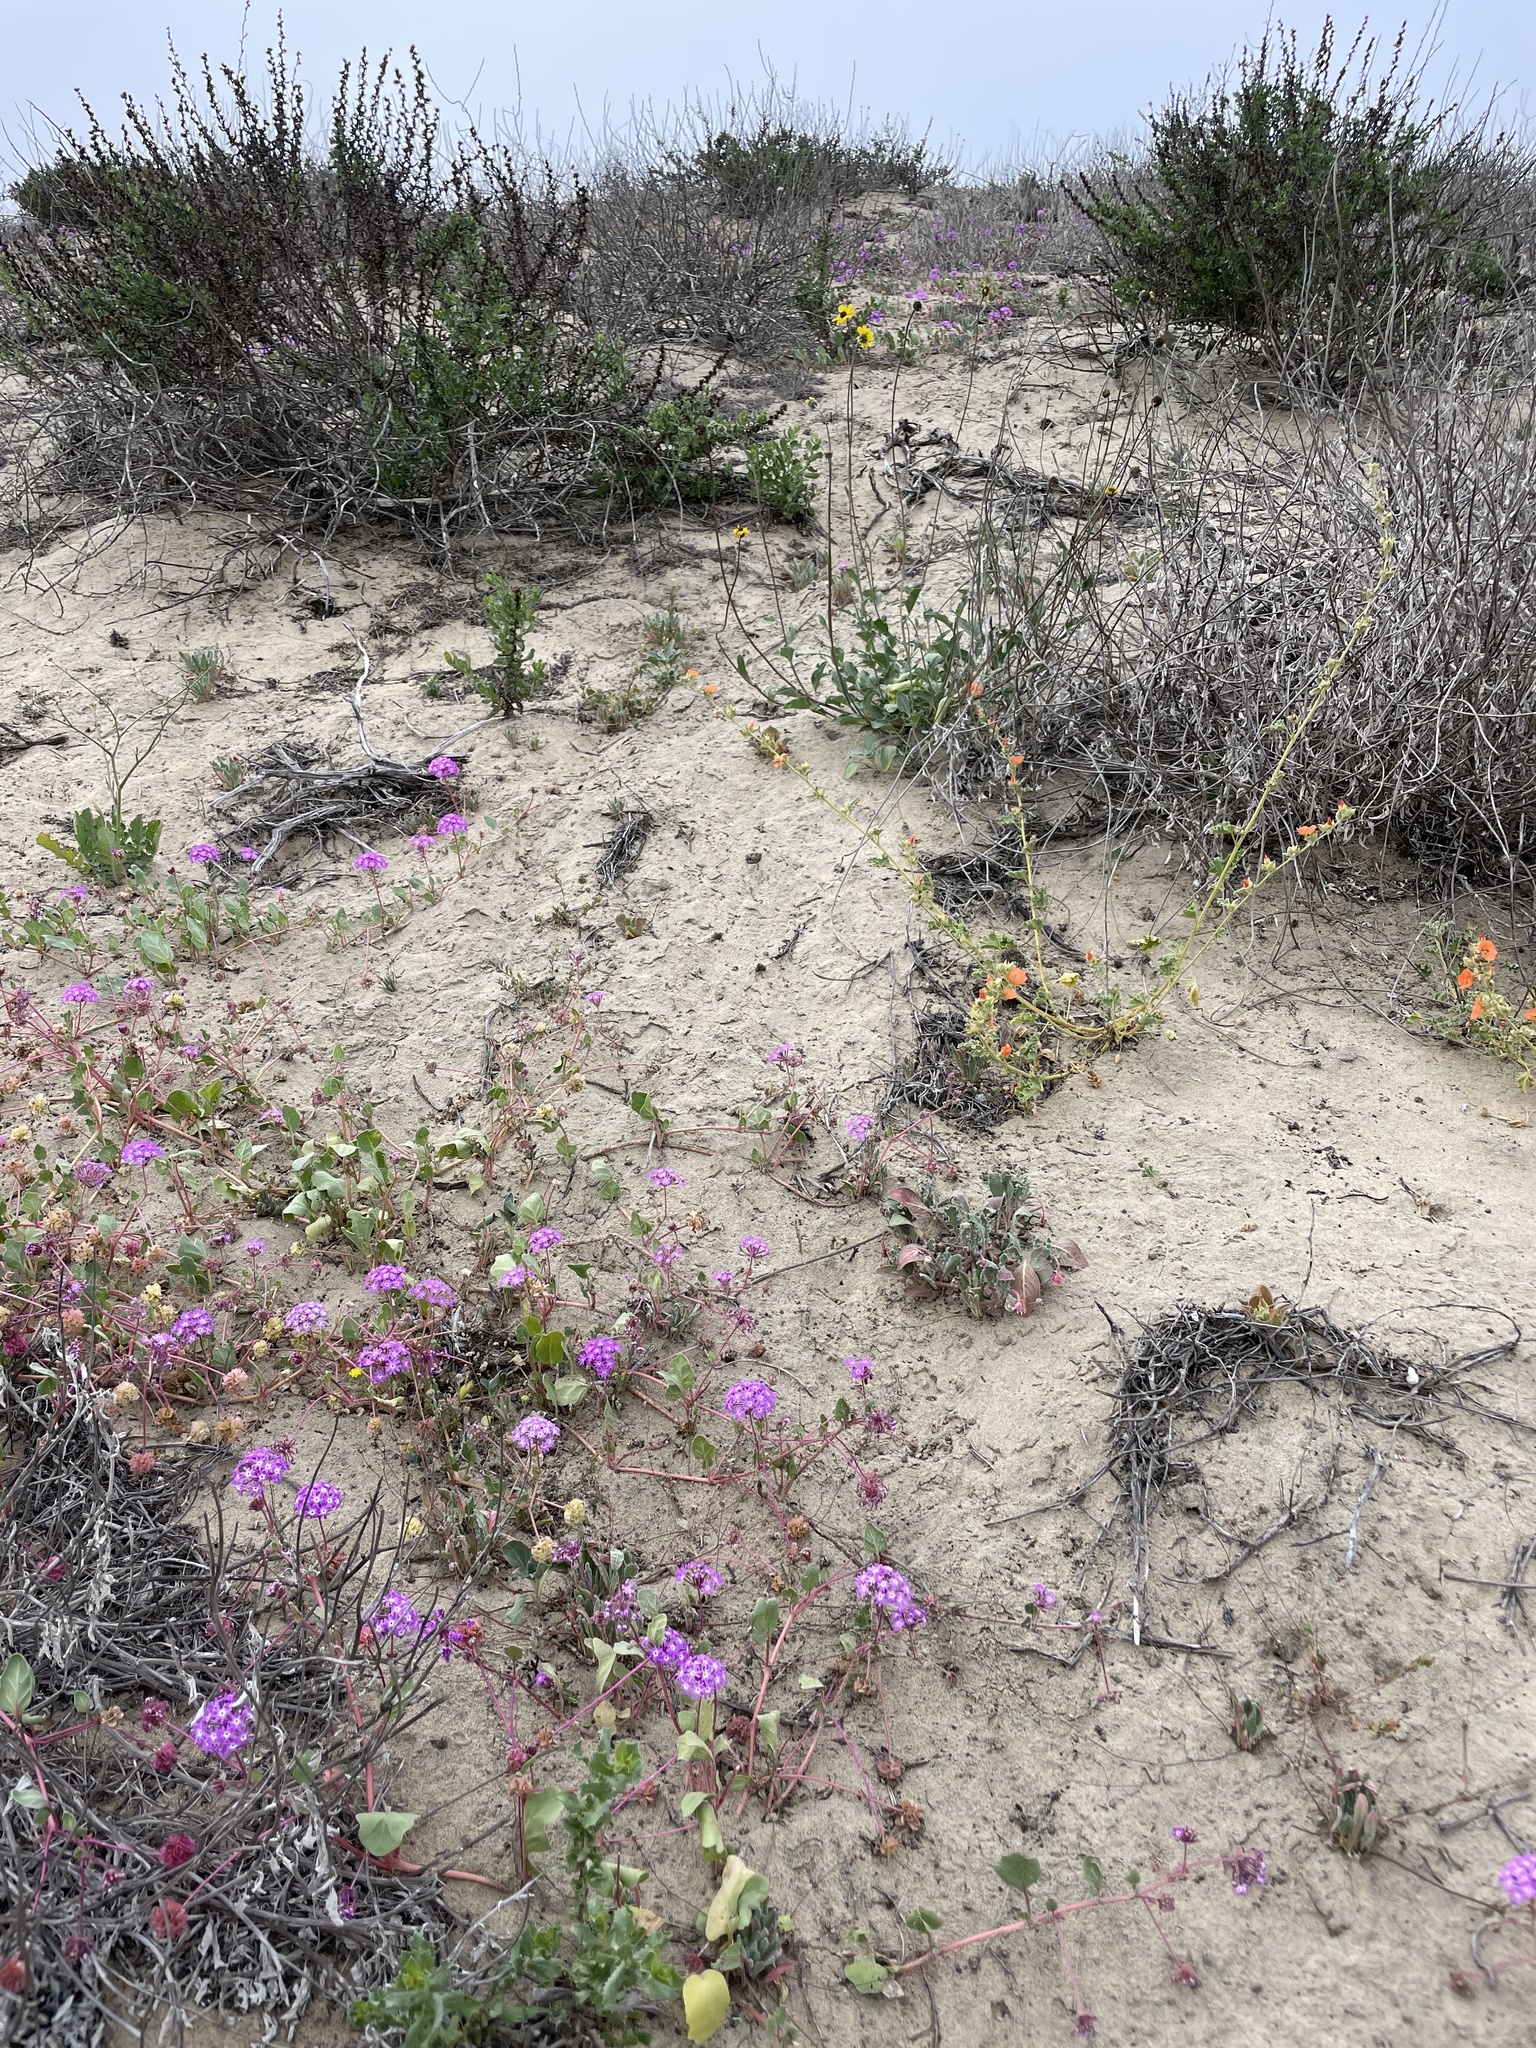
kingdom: Plantae
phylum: Tracheophyta
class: Magnoliopsida
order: Caryophyllales
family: Nyctaginaceae
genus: Abronia
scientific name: Abronia umbellata
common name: Sand-verbena
